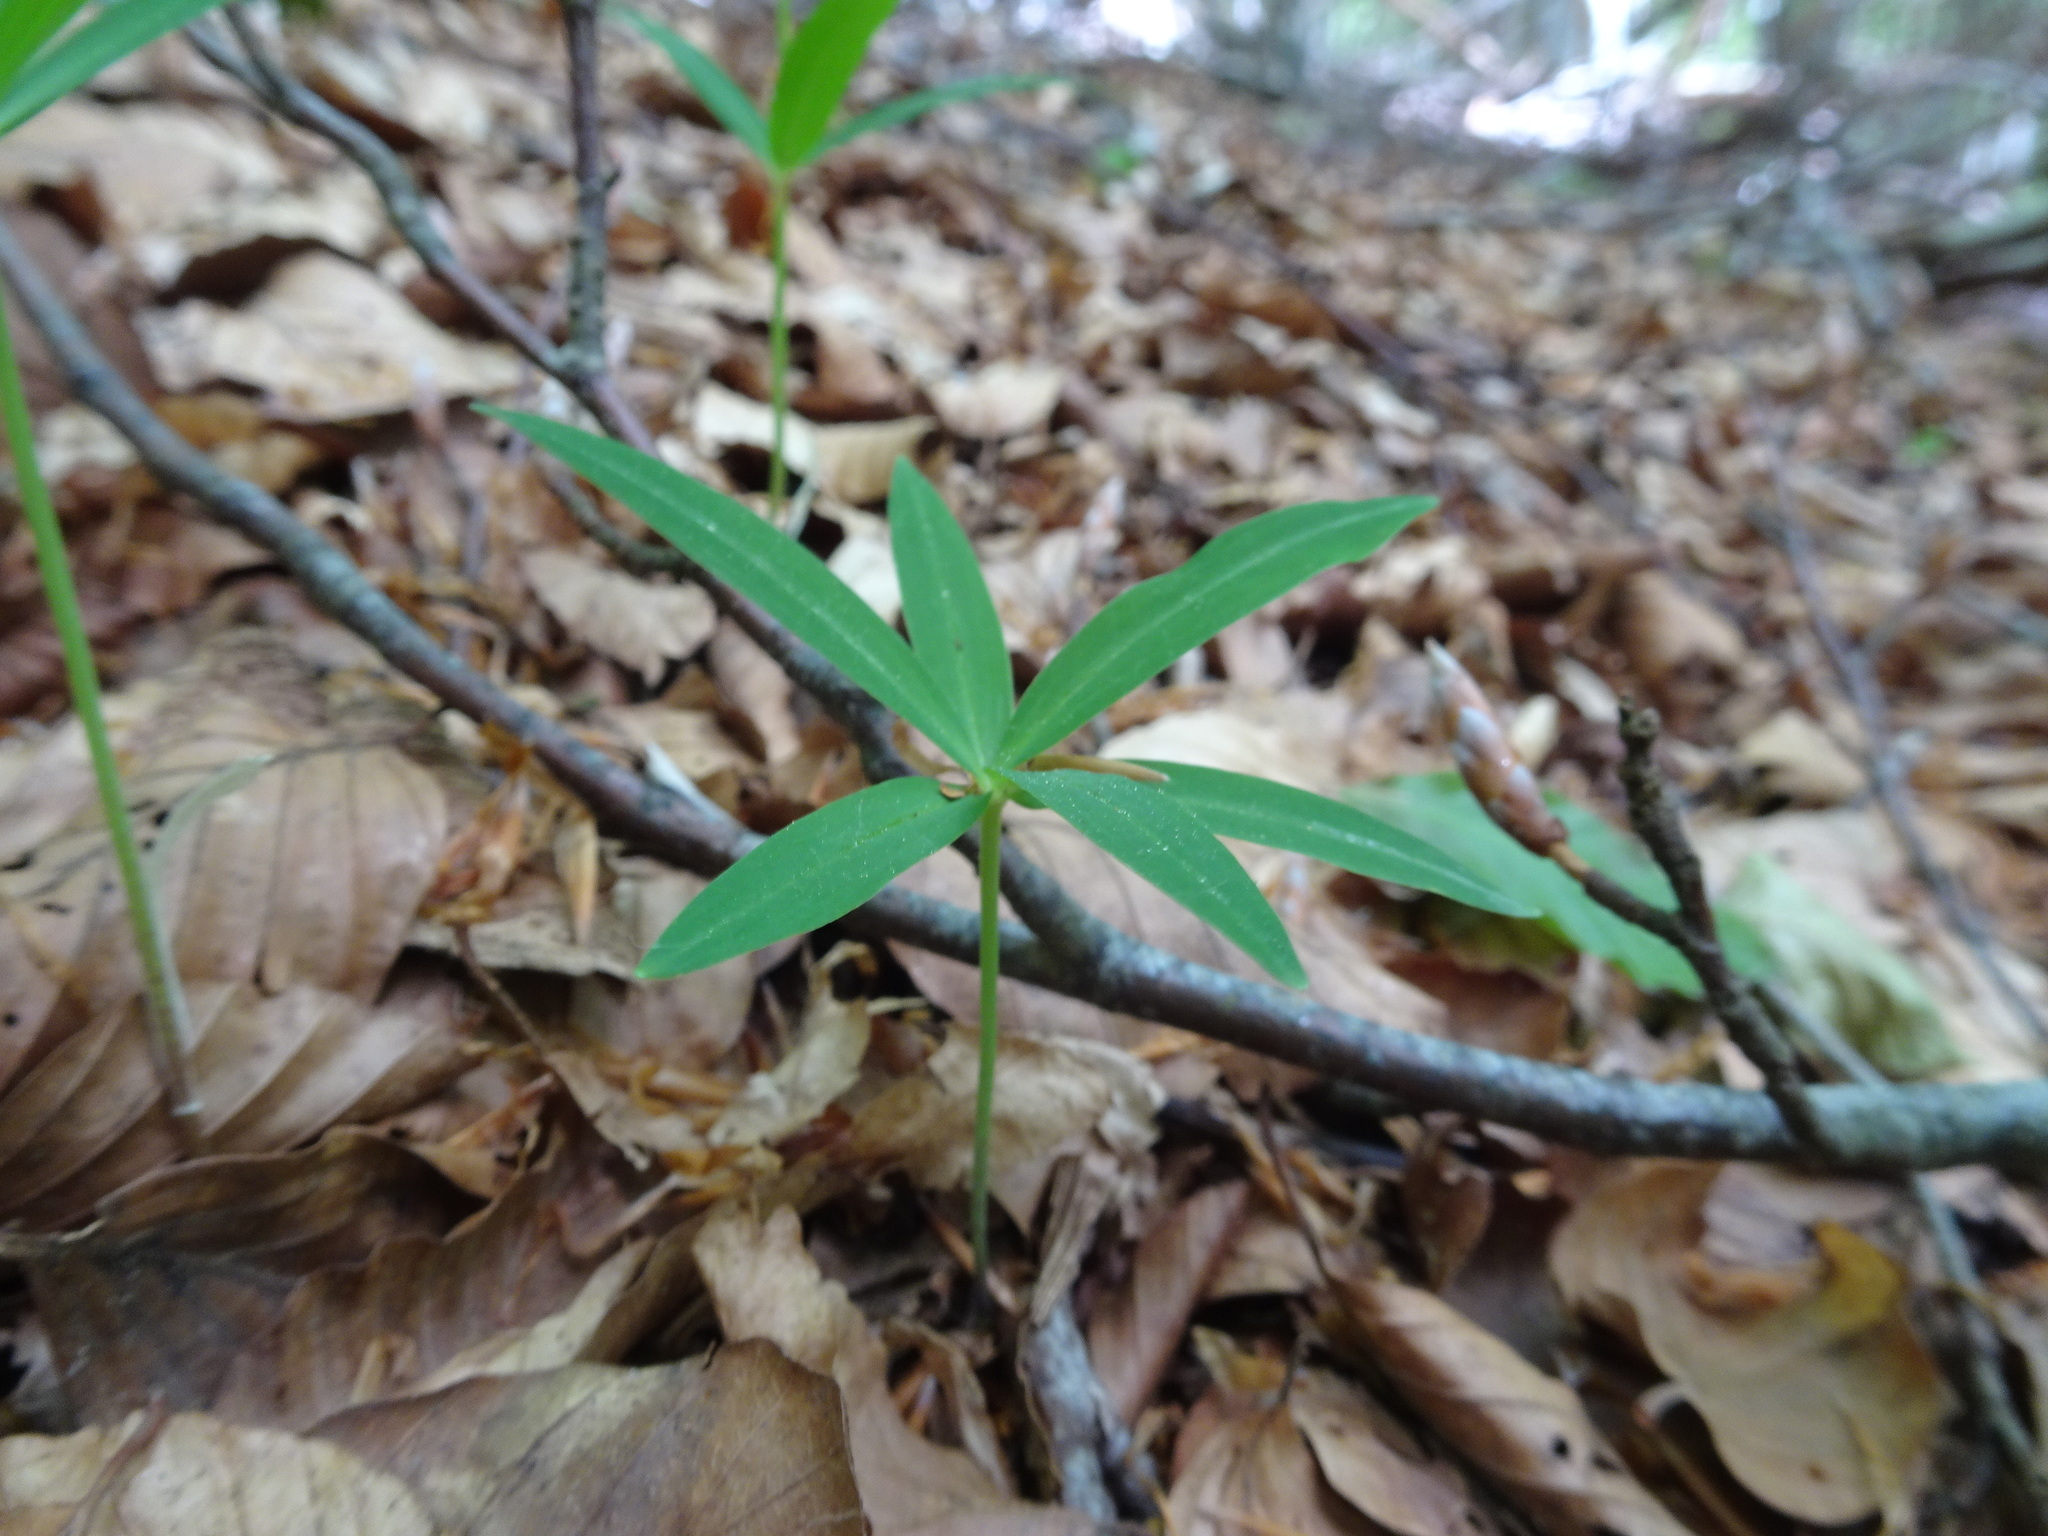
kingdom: Plantae
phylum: Tracheophyta
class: Liliopsida
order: Asparagales
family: Asparagaceae
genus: Polygonatum
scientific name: Polygonatum verticillatum
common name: Whorled solomon's-seal
